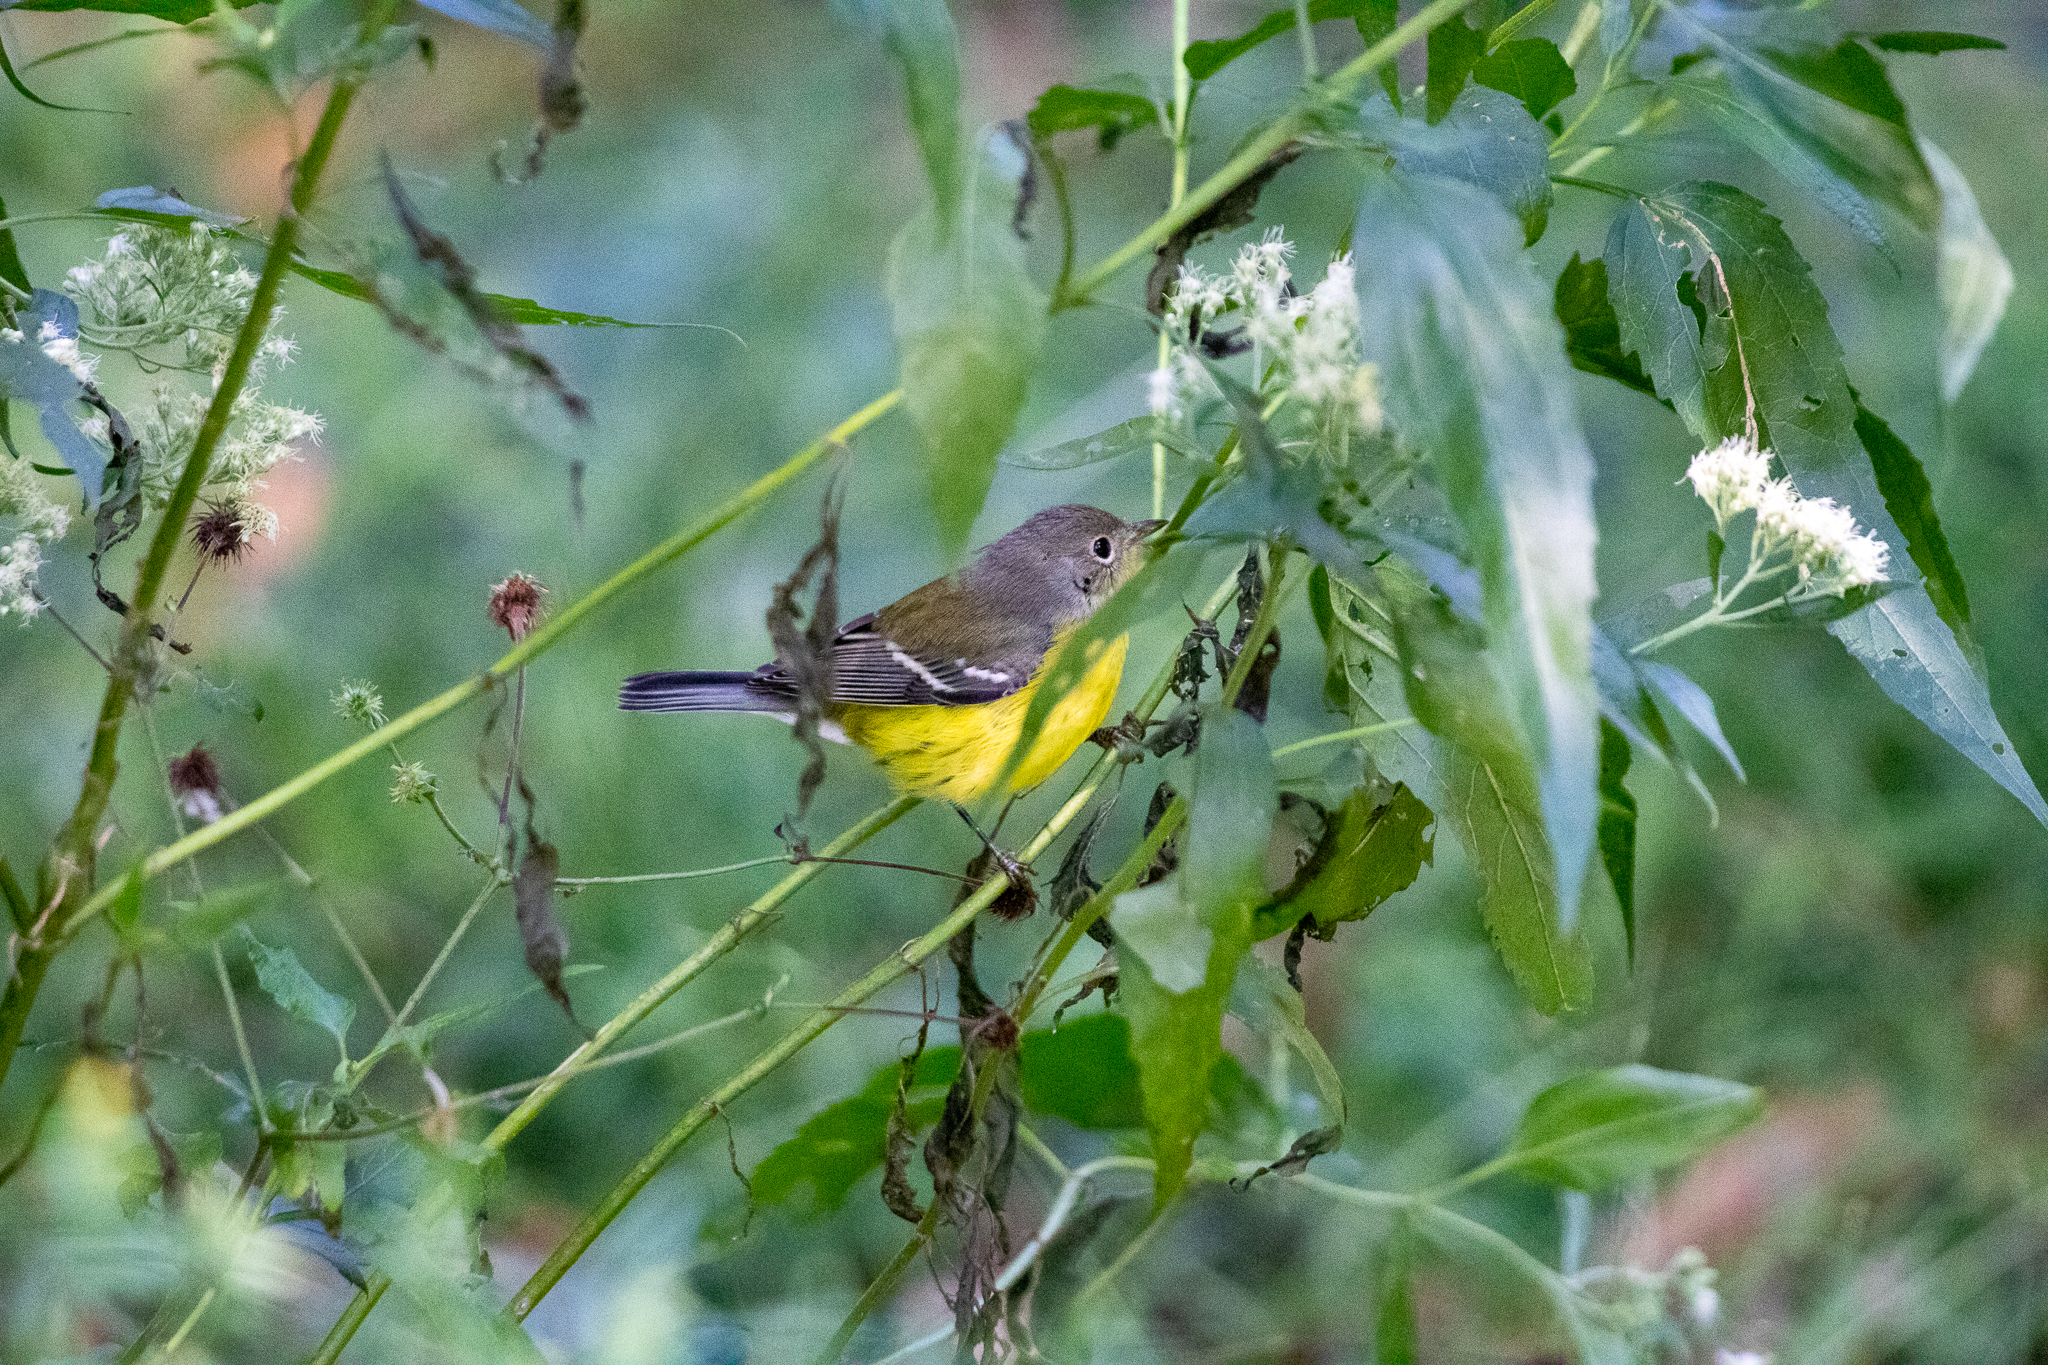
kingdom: Animalia
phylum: Chordata
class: Aves
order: Passeriformes
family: Parulidae
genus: Setophaga
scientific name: Setophaga magnolia
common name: Magnolia warbler
